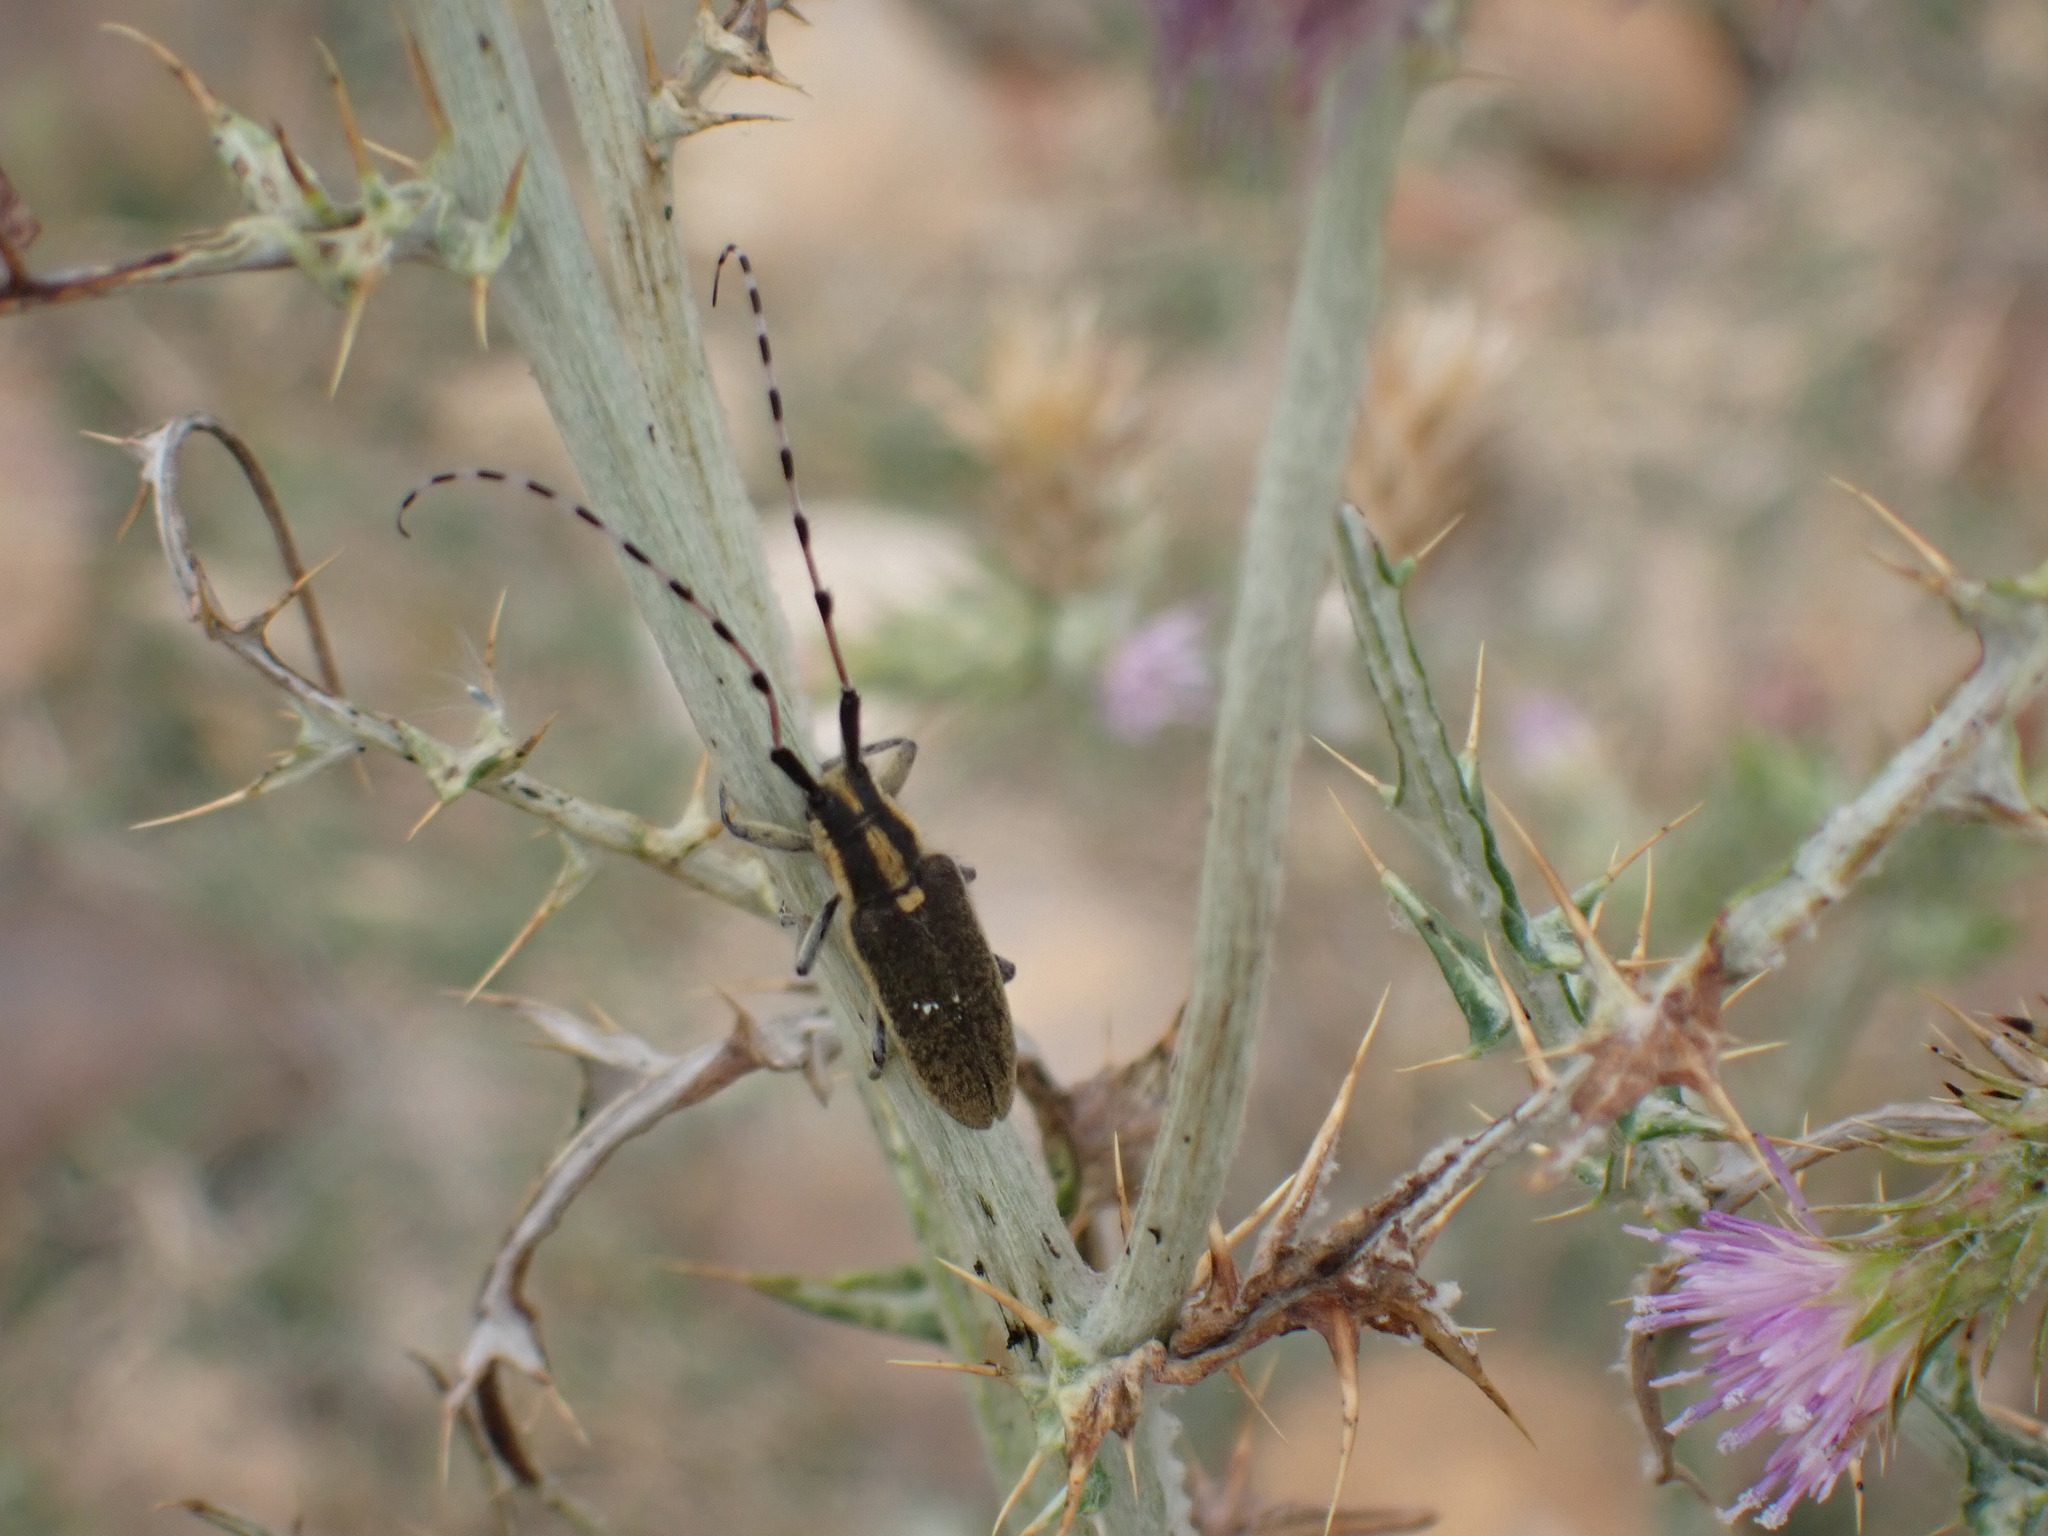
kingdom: Animalia
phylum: Arthropoda
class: Insecta
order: Coleoptera
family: Cerambycidae
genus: Agapanthia
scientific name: Agapanthia dahlii
